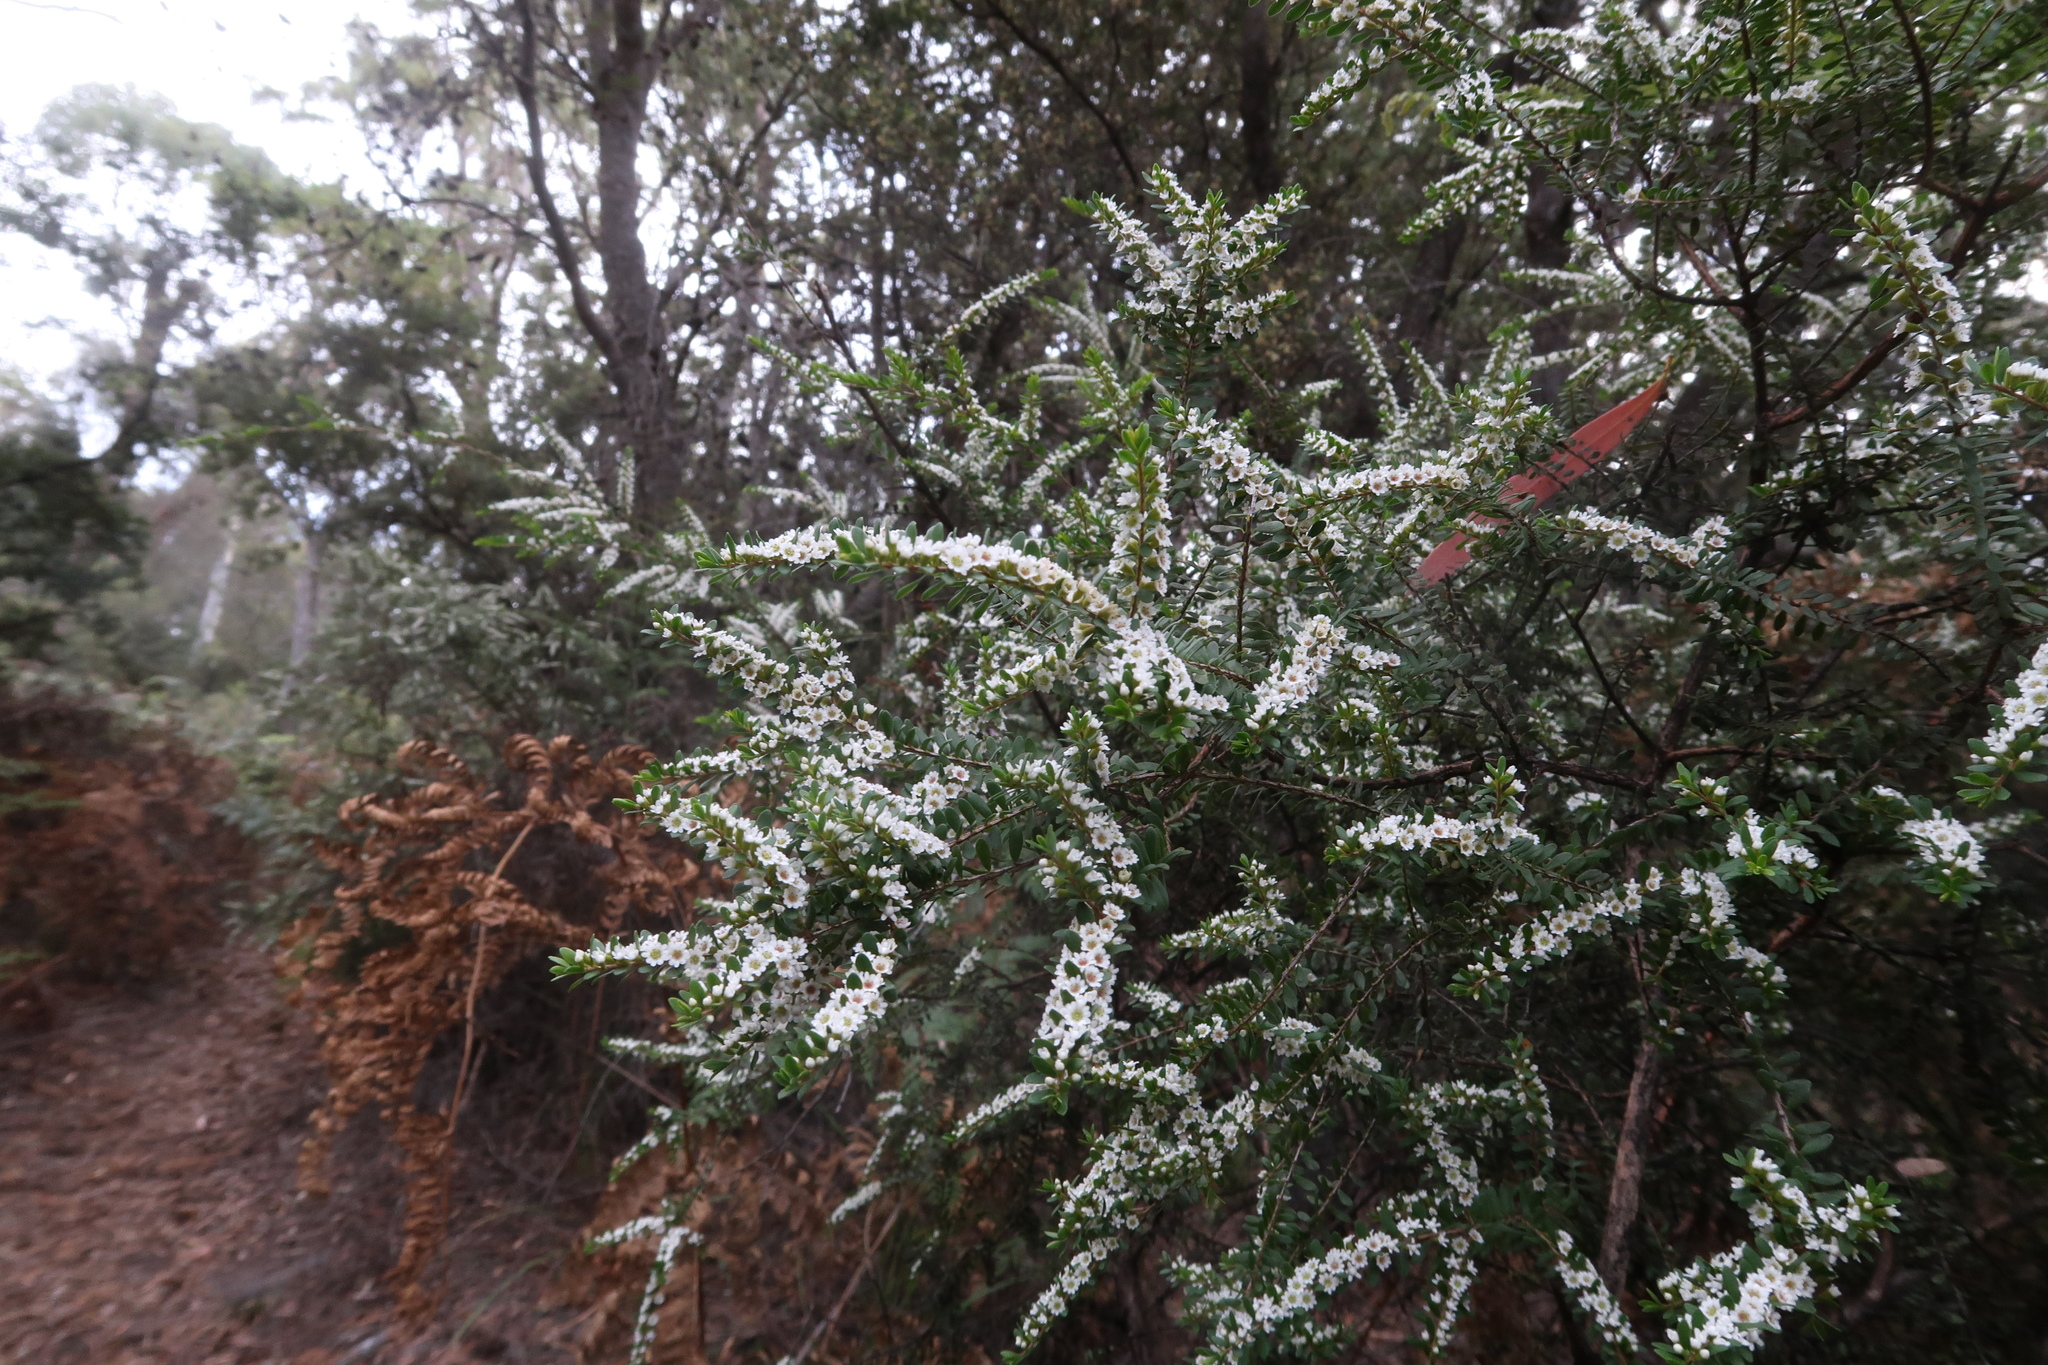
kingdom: Plantae
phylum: Tracheophyta
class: Magnoliopsida
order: Myrtales
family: Myrtaceae
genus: Thryptomene
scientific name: Thryptomene micrantha
